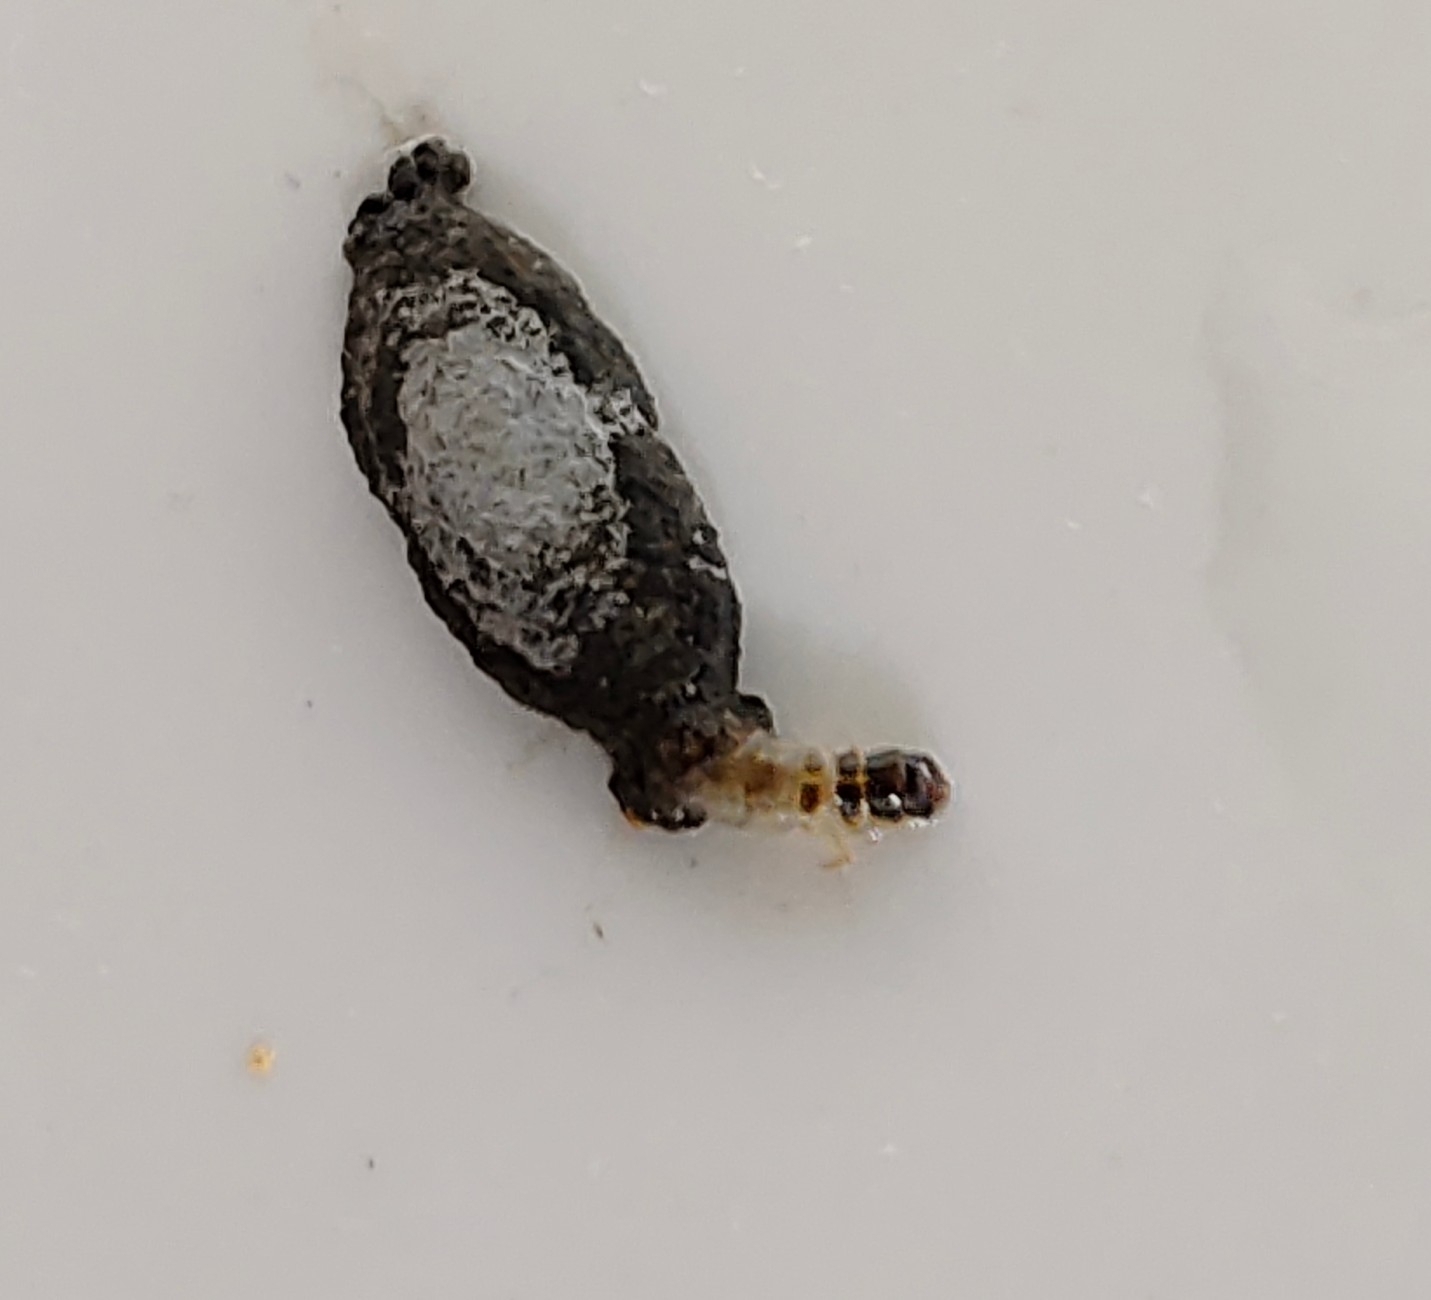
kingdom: Animalia
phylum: Arthropoda
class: Insecta
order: Lepidoptera
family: Tineidae
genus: Phereoeca
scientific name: Phereoeca uterella
